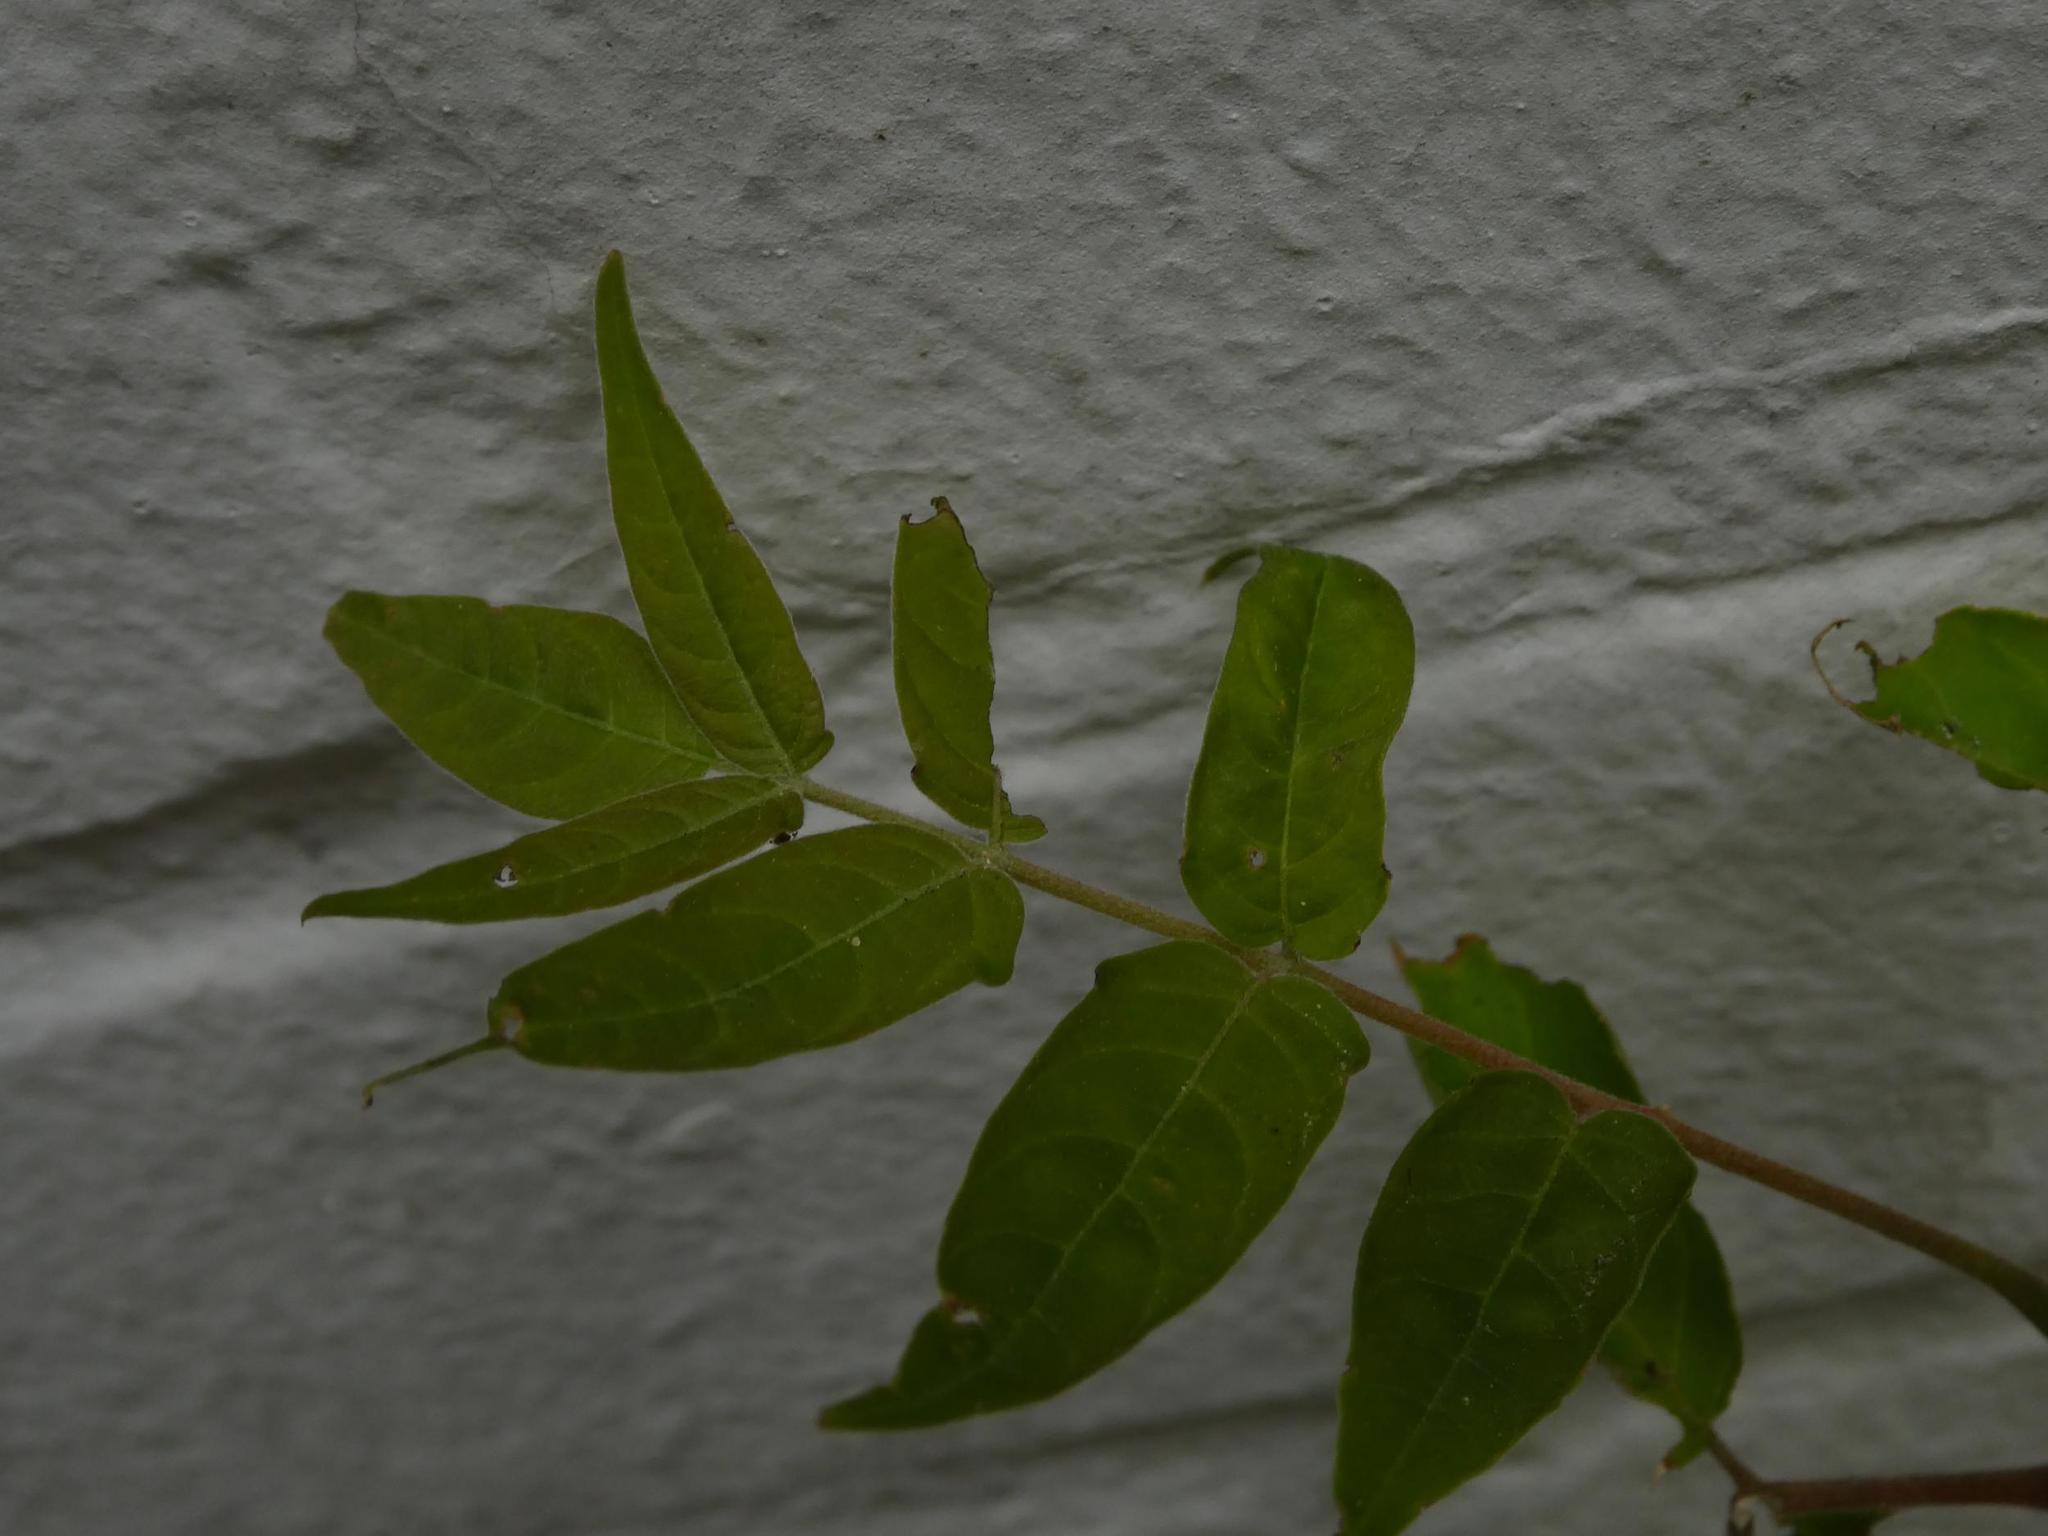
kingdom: Plantae
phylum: Tracheophyta
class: Magnoliopsida
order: Sapindales
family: Simaroubaceae
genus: Ailanthus
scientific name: Ailanthus altissima
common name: Tree-of-heaven
